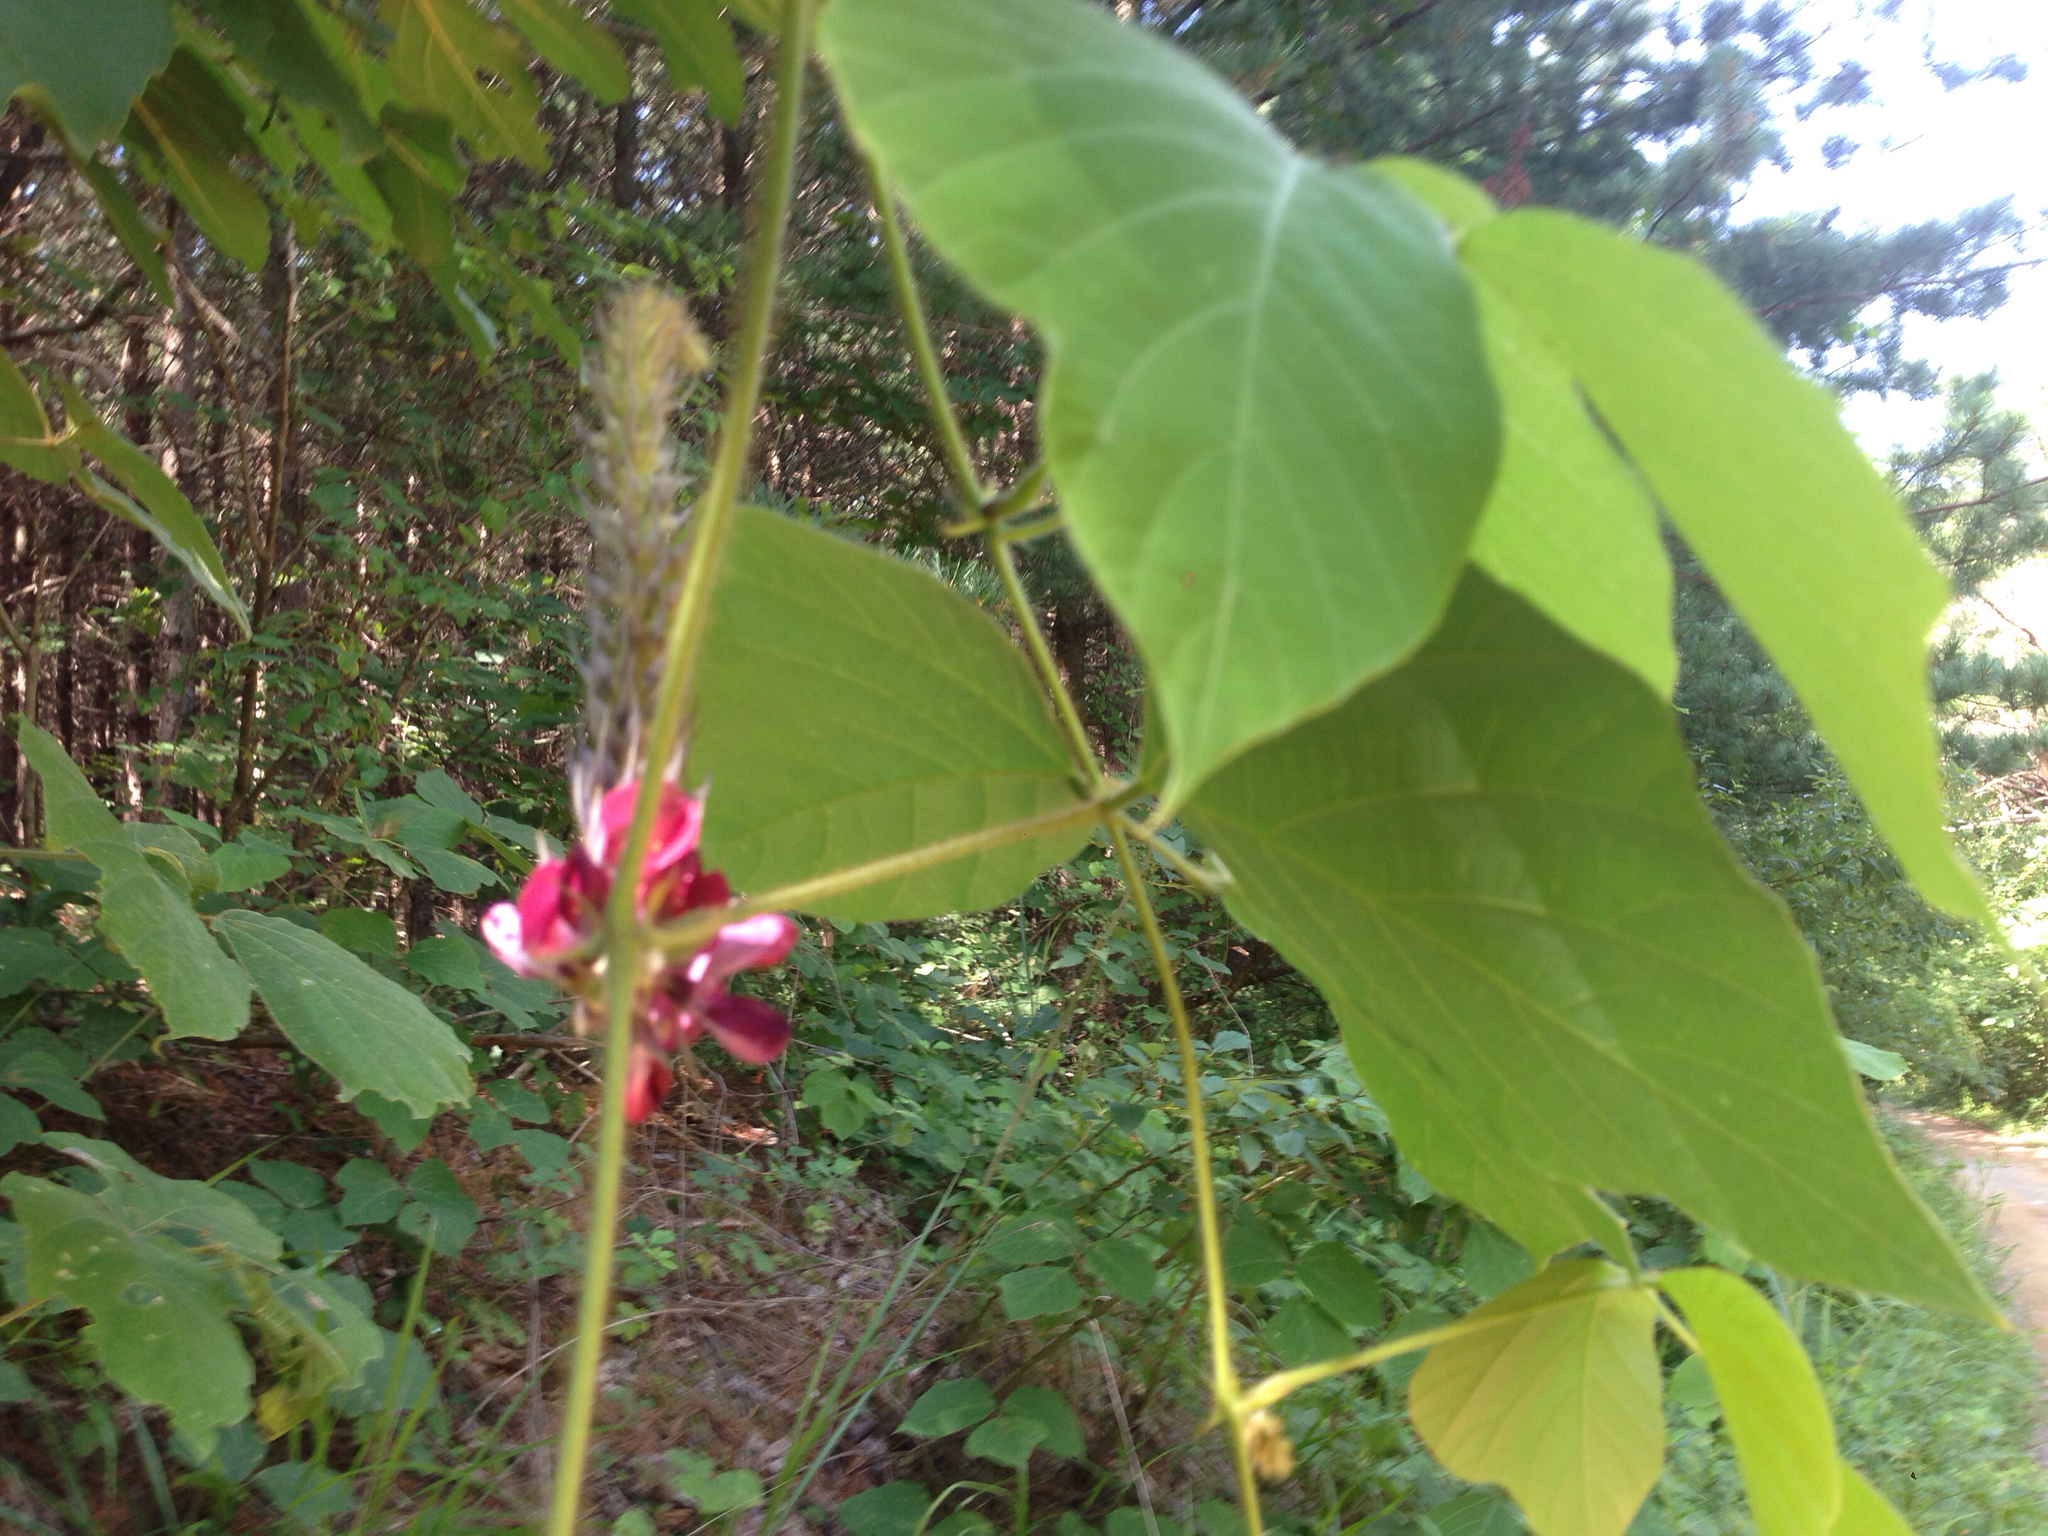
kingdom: Plantae
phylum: Tracheophyta
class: Magnoliopsida
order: Fabales
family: Fabaceae
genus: Pueraria
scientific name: Pueraria montana
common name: Kudzu
